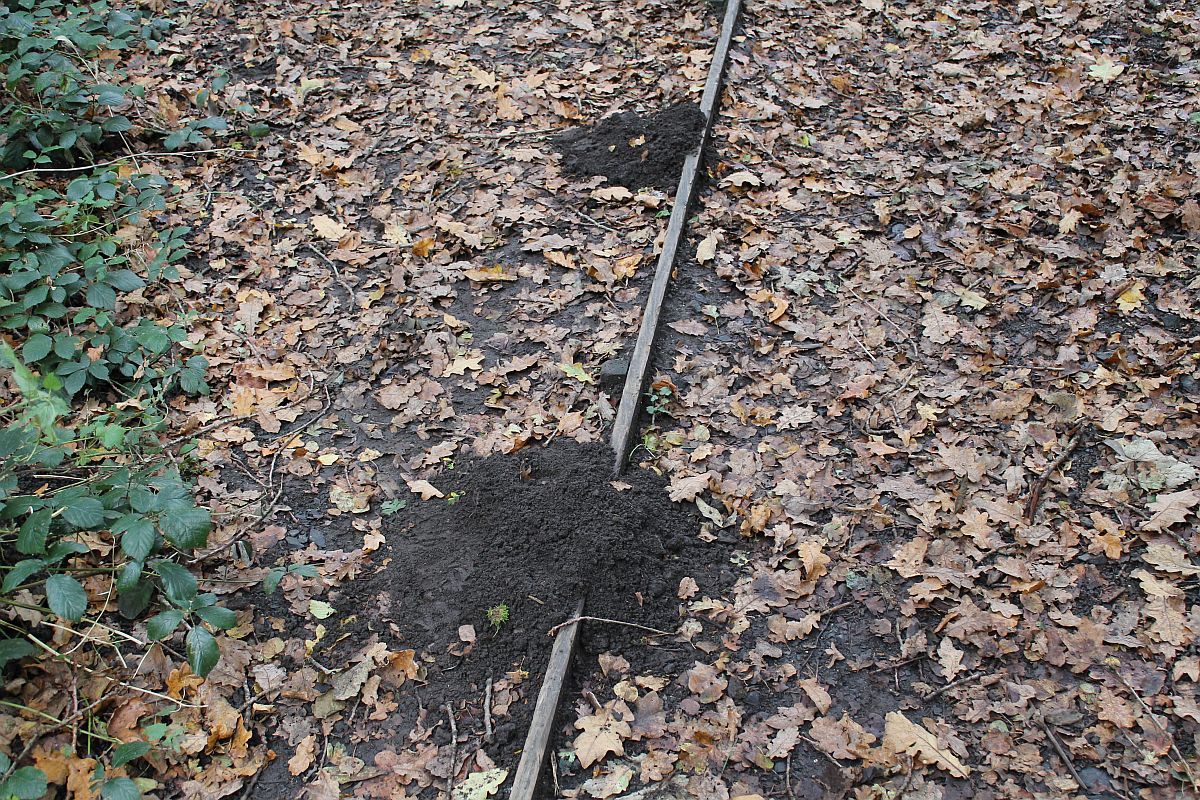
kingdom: Animalia
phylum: Chordata
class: Mammalia
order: Soricomorpha
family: Talpidae
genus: Talpa
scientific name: Talpa europaea
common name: European mole
